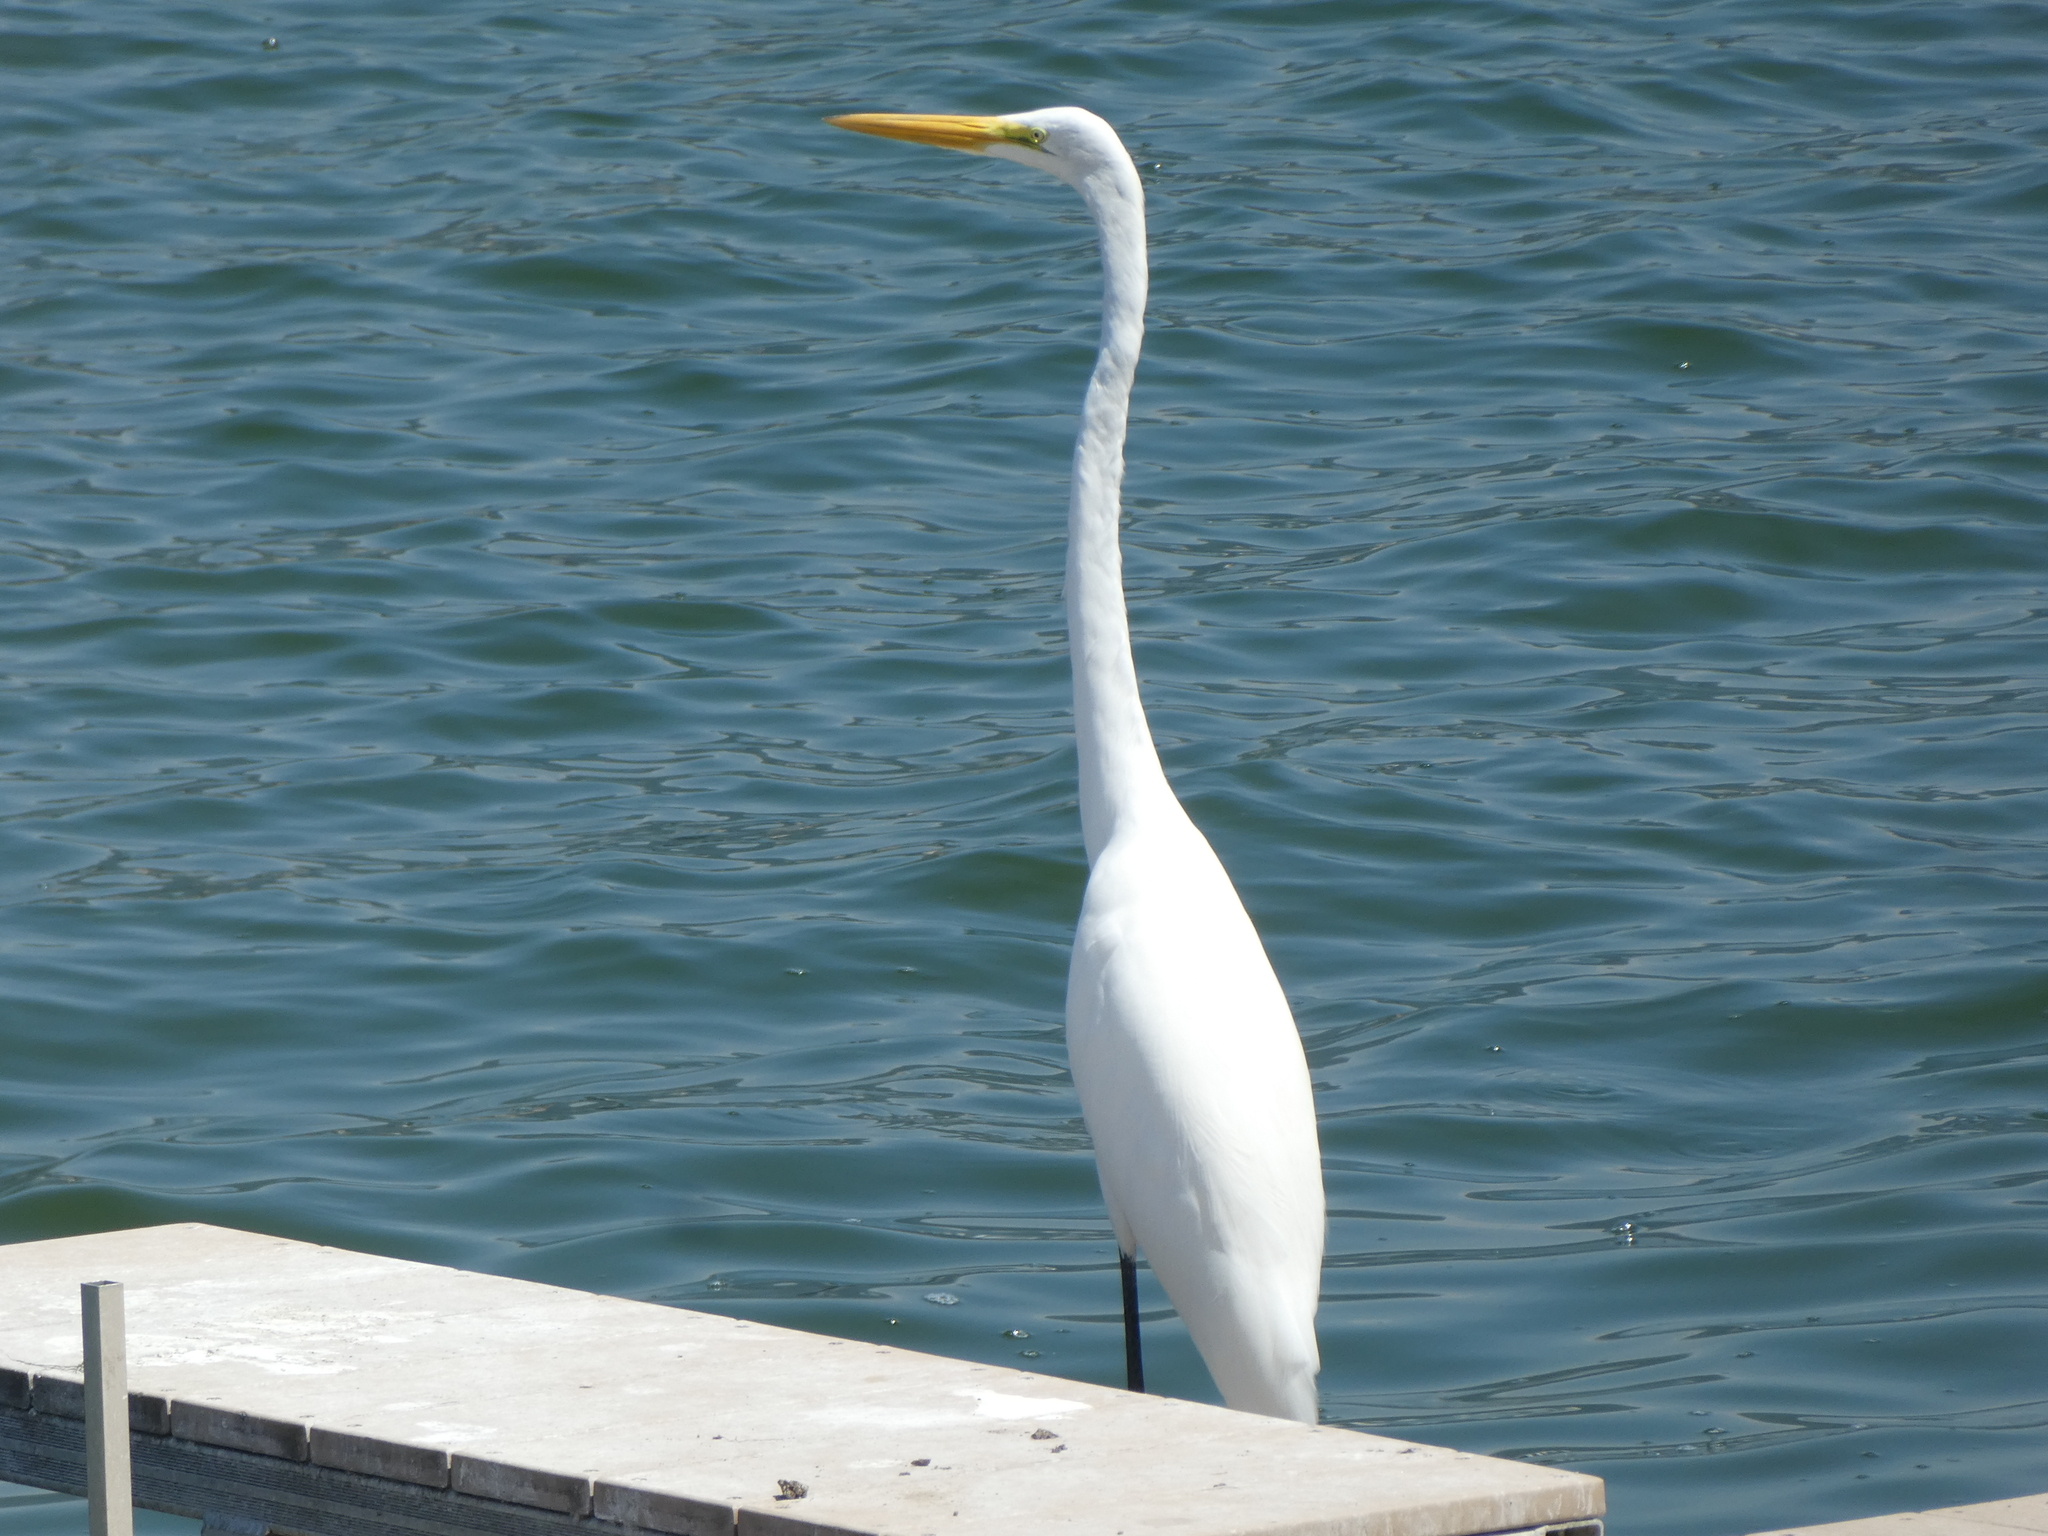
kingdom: Animalia
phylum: Chordata
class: Aves
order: Pelecaniformes
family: Ardeidae
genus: Ardea
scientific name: Ardea alba
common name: Great egret
